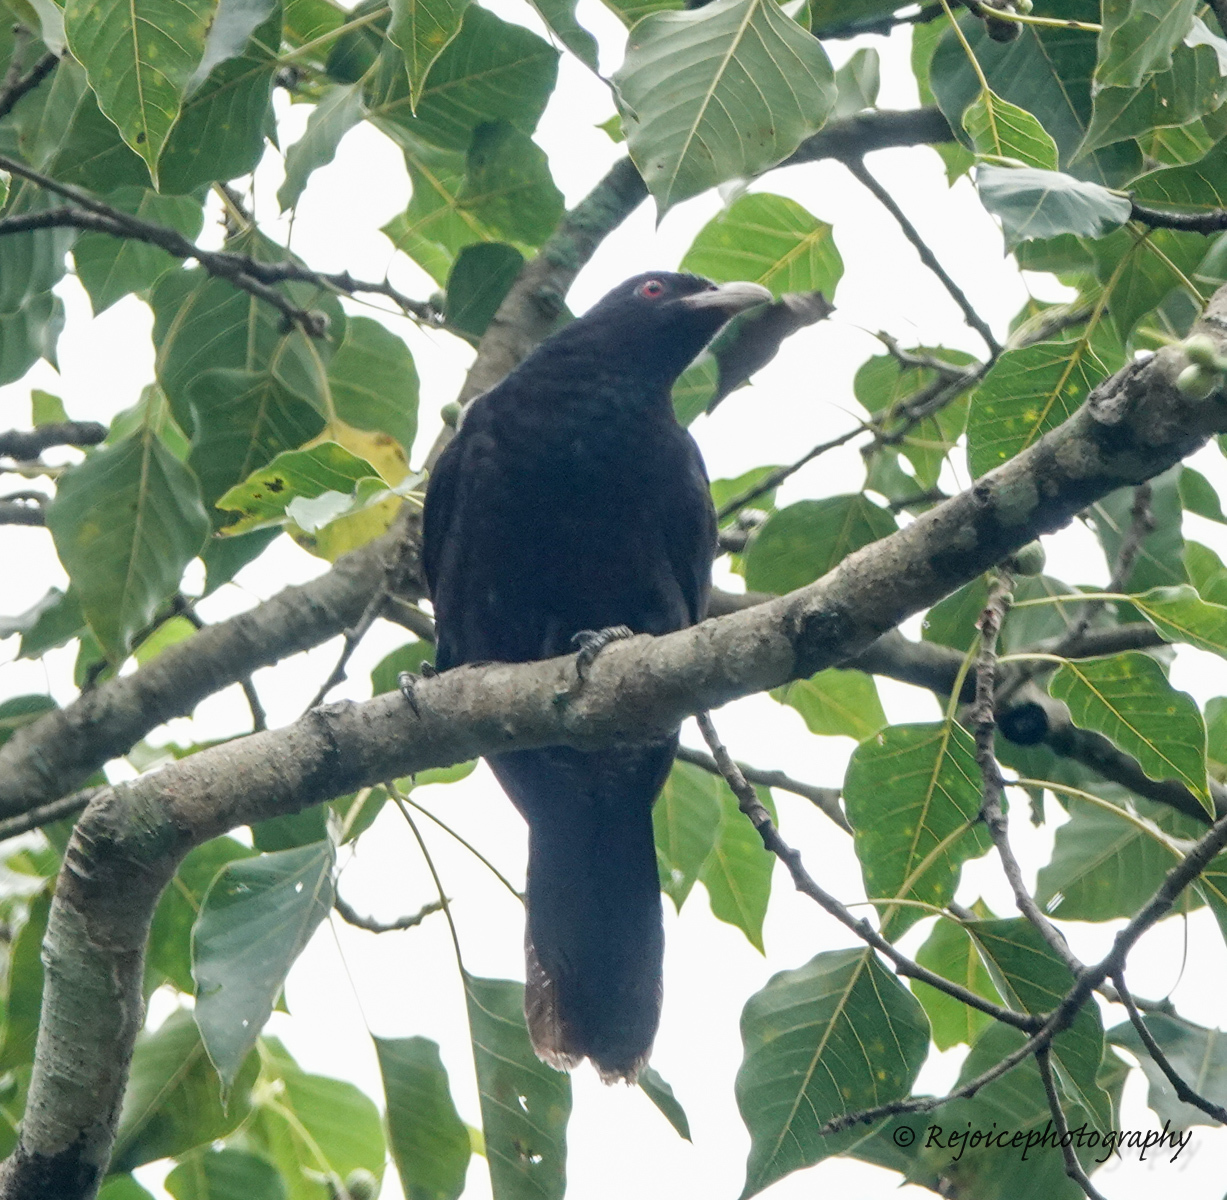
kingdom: Animalia
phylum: Chordata
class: Aves
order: Cuculiformes
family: Cuculidae
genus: Eudynamys
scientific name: Eudynamys scolopaceus
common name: Asian koel
